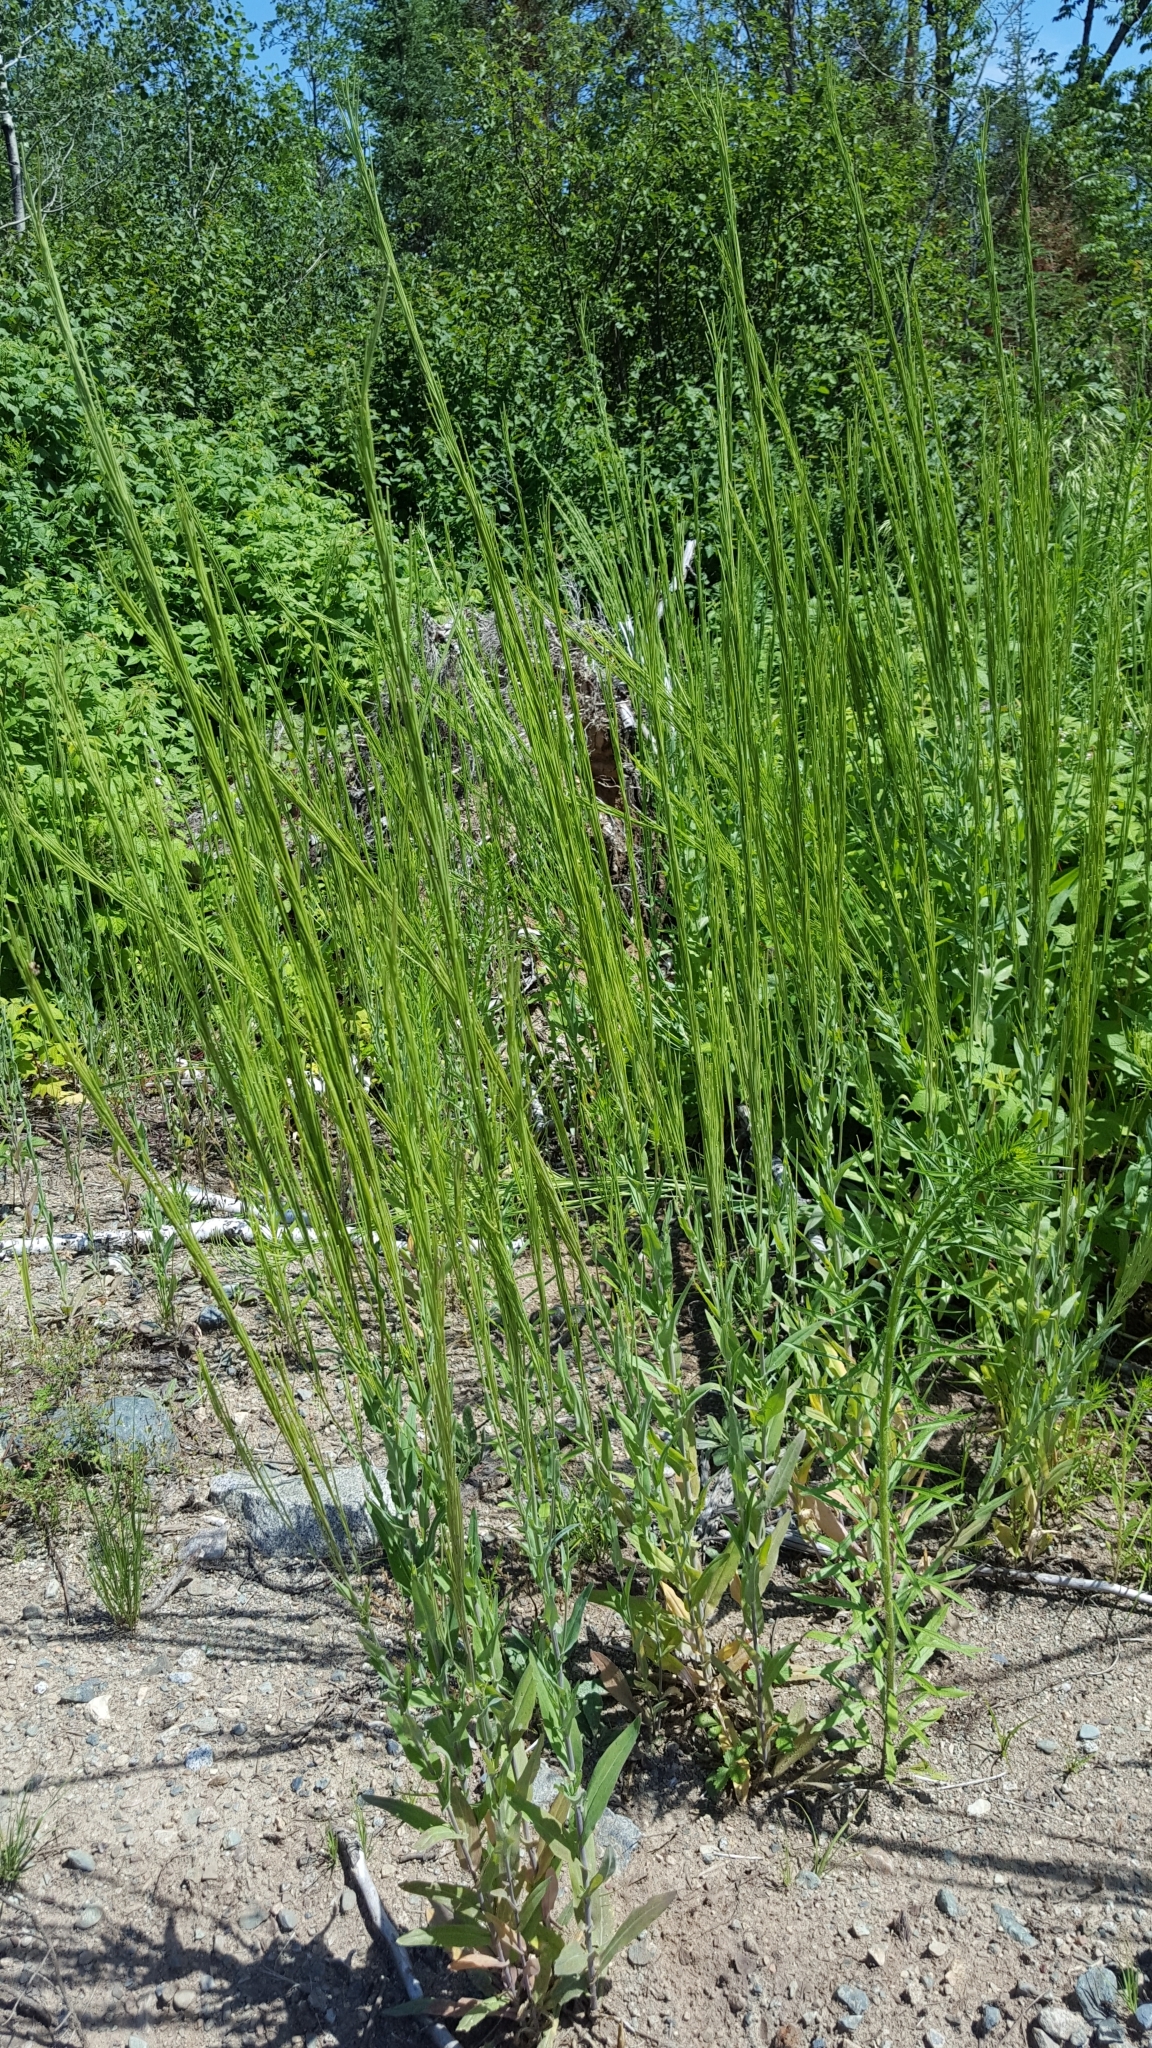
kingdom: Plantae
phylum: Tracheophyta
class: Magnoliopsida
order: Brassicales
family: Brassicaceae
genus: Turritis
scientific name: Turritis glabra
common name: Tower rockcress
